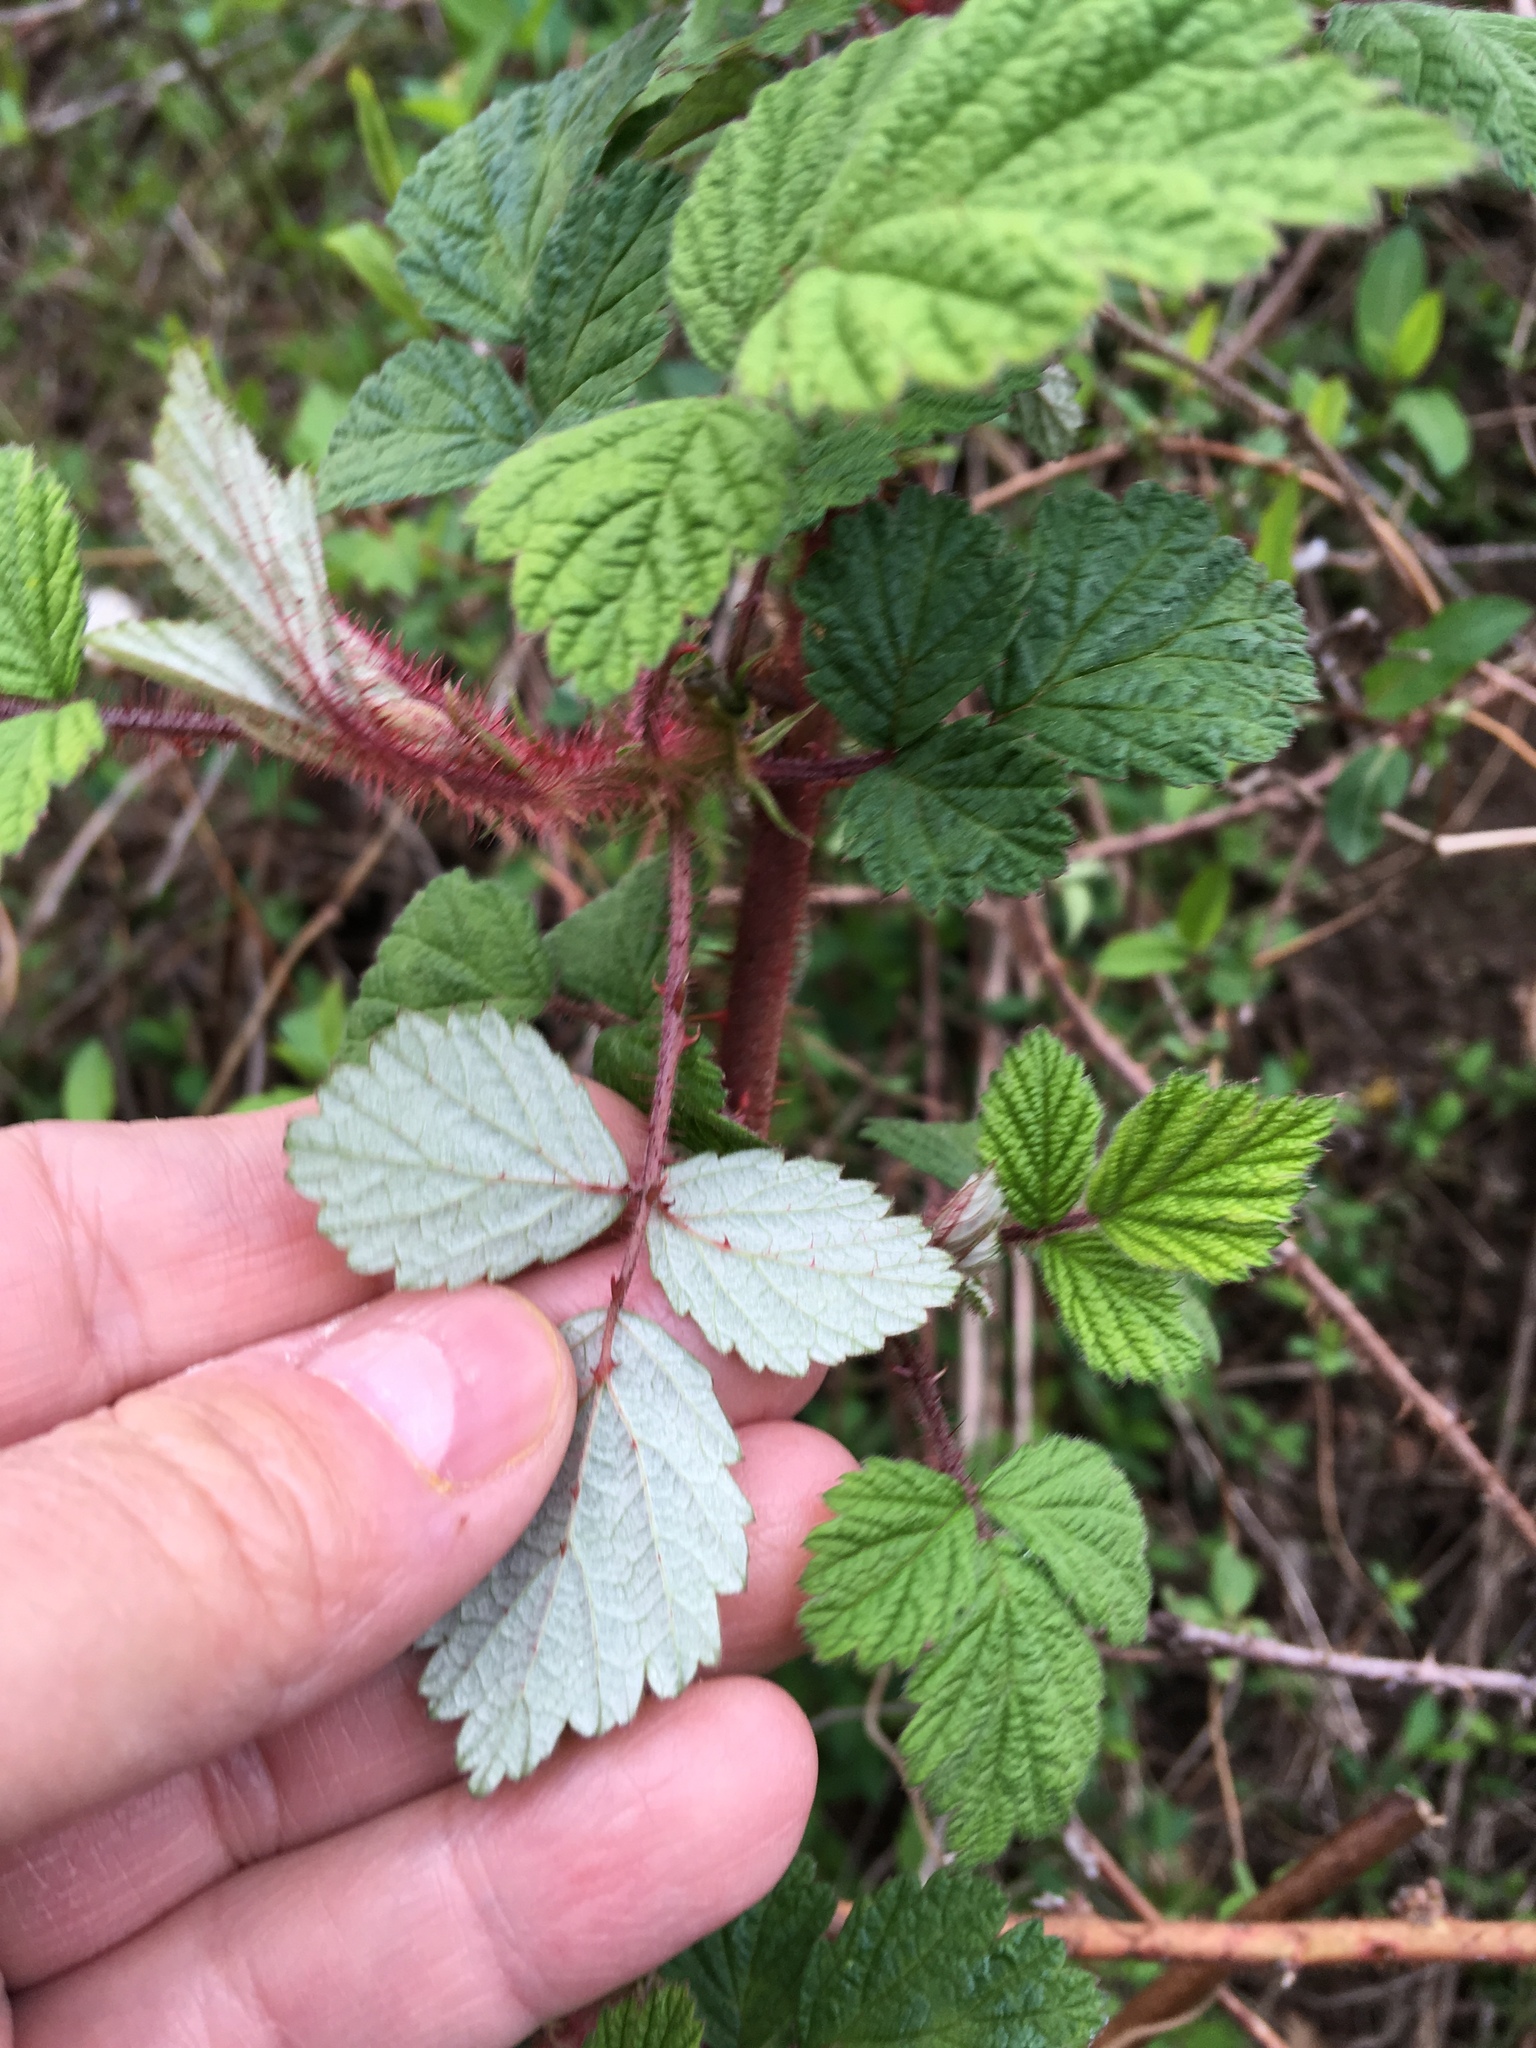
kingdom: Plantae
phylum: Tracheophyta
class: Magnoliopsida
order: Rosales
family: Rosaceae
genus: Rubus
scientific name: Rubus phoenicolasius
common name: Japanese wineberry
